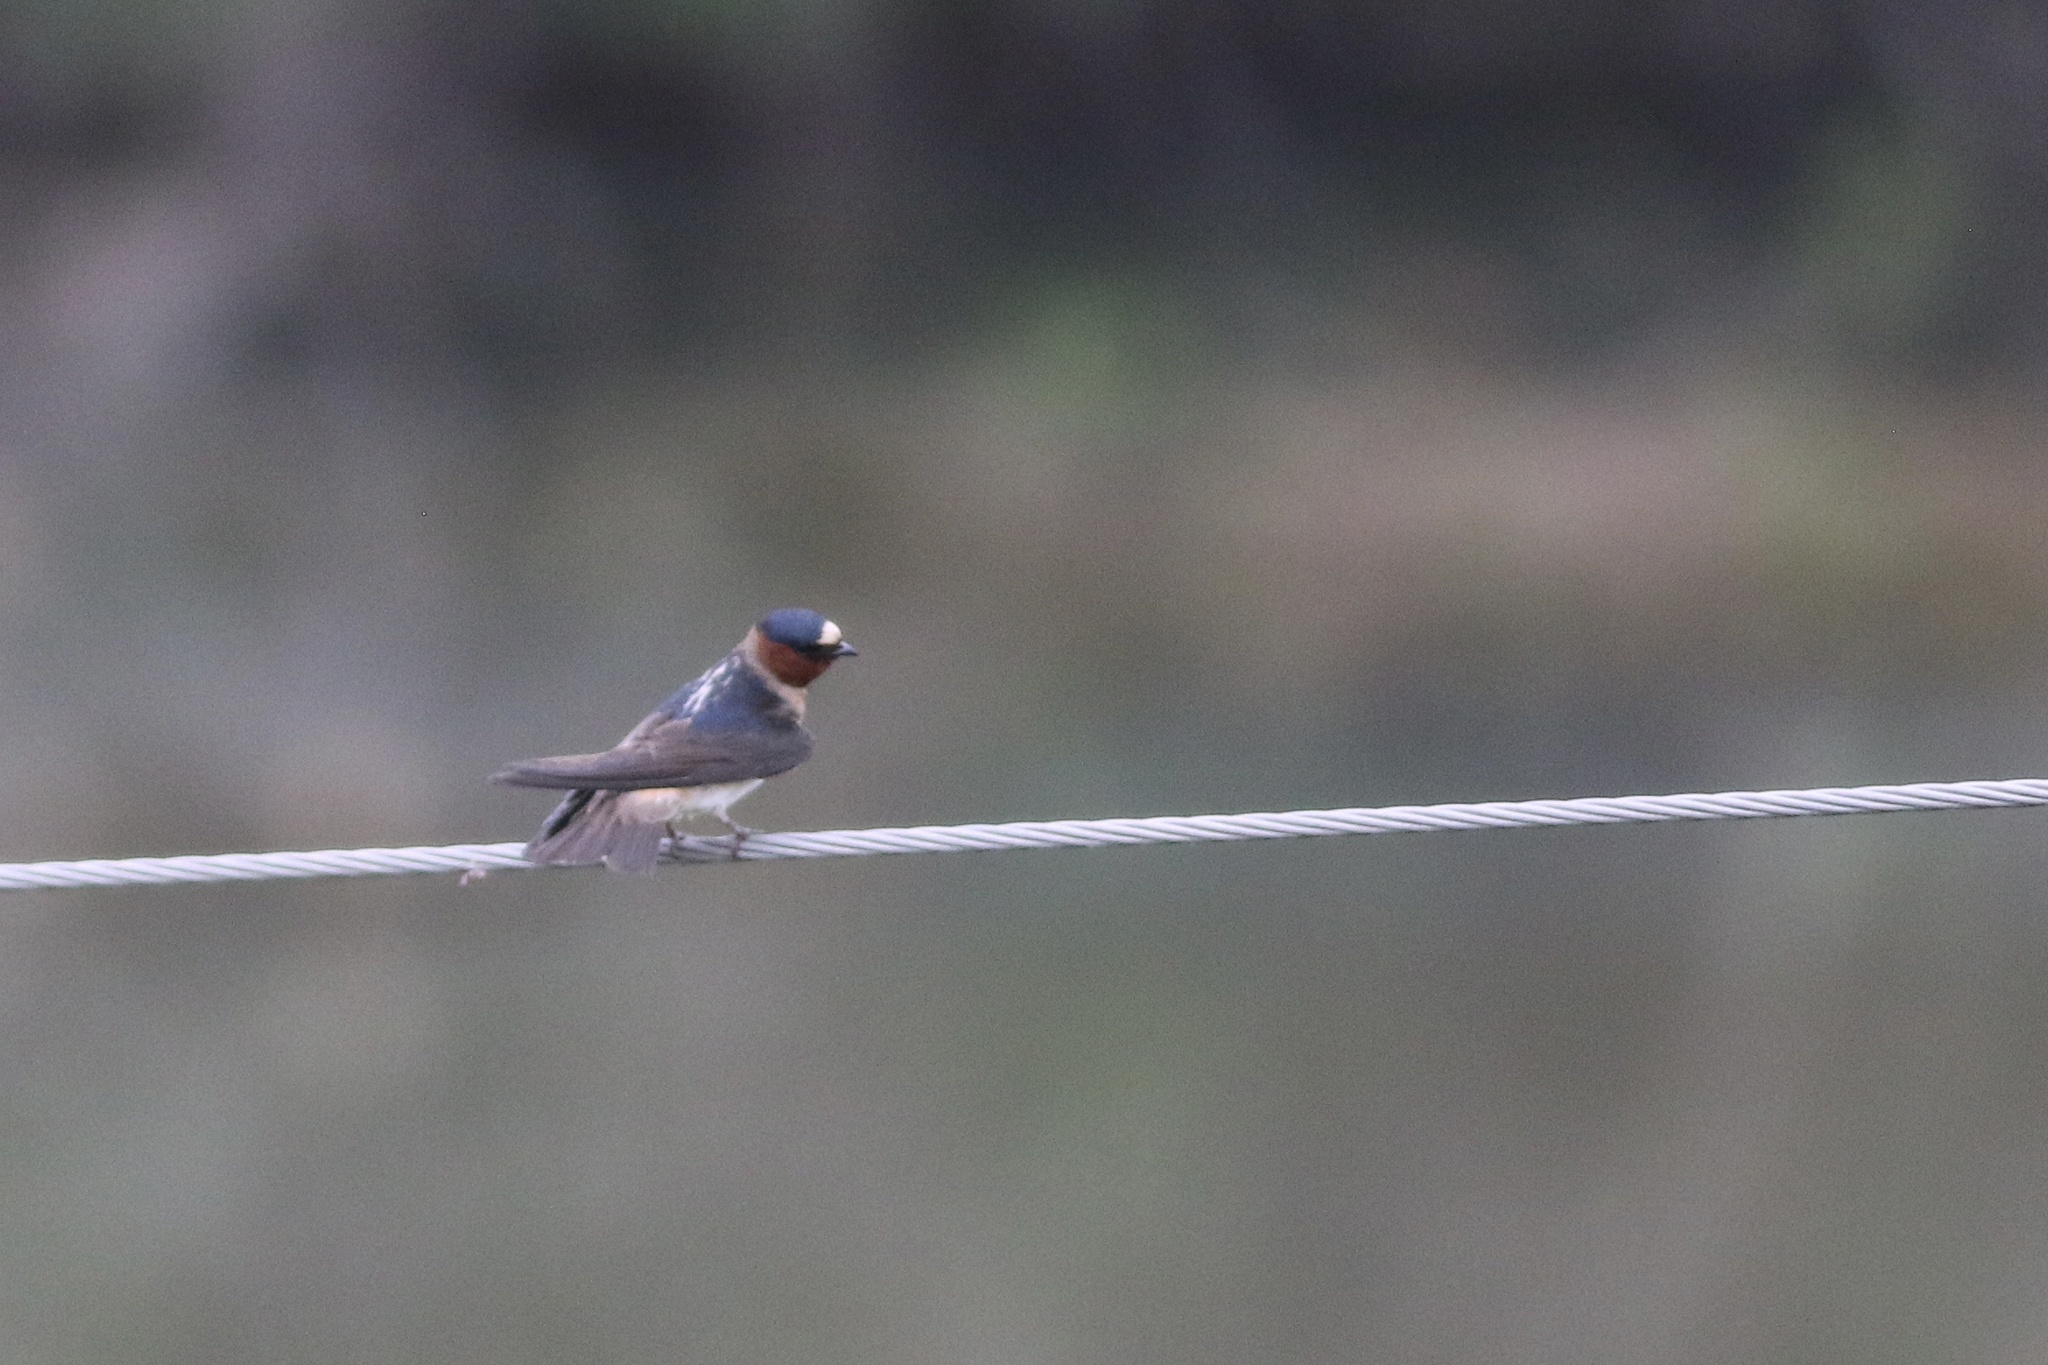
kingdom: Animalia
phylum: Chordata
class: Aves
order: Passeriformes
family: Hirundinidae
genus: Petrochelidon
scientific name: Petrochelidon pyrrhonota
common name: American cliff swallow
